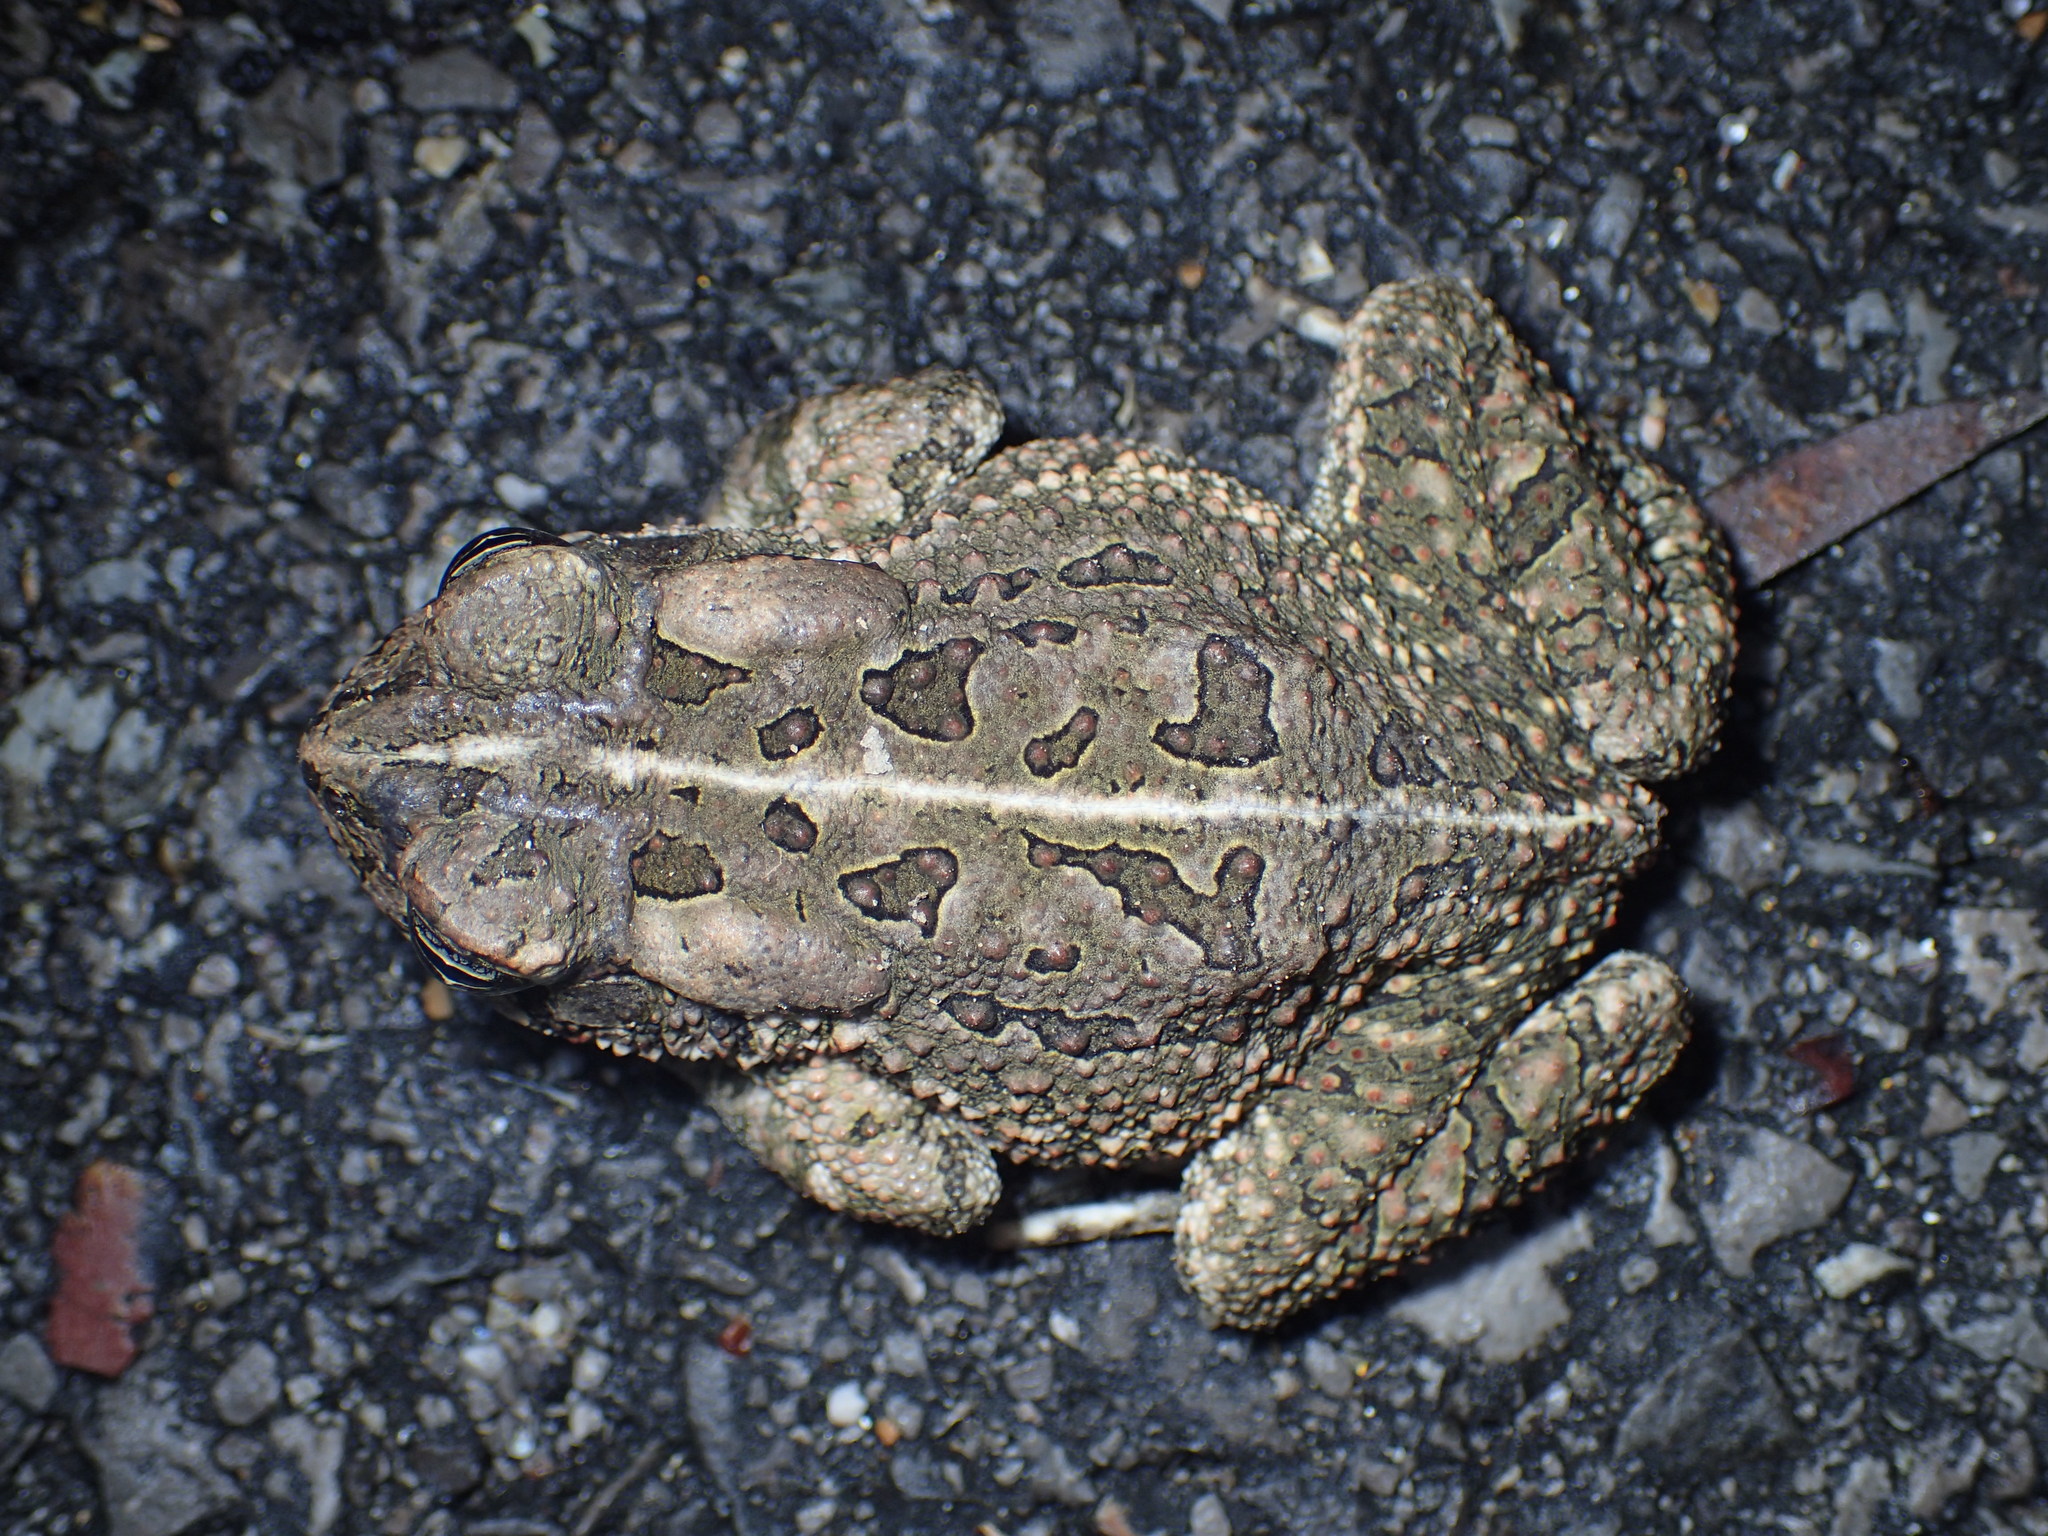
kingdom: Animalia
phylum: Chordata
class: Amphibia
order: Anura
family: Bufonidae
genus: Anaxyrus
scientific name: Anaxyrus fowleri
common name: Fowler's toad
